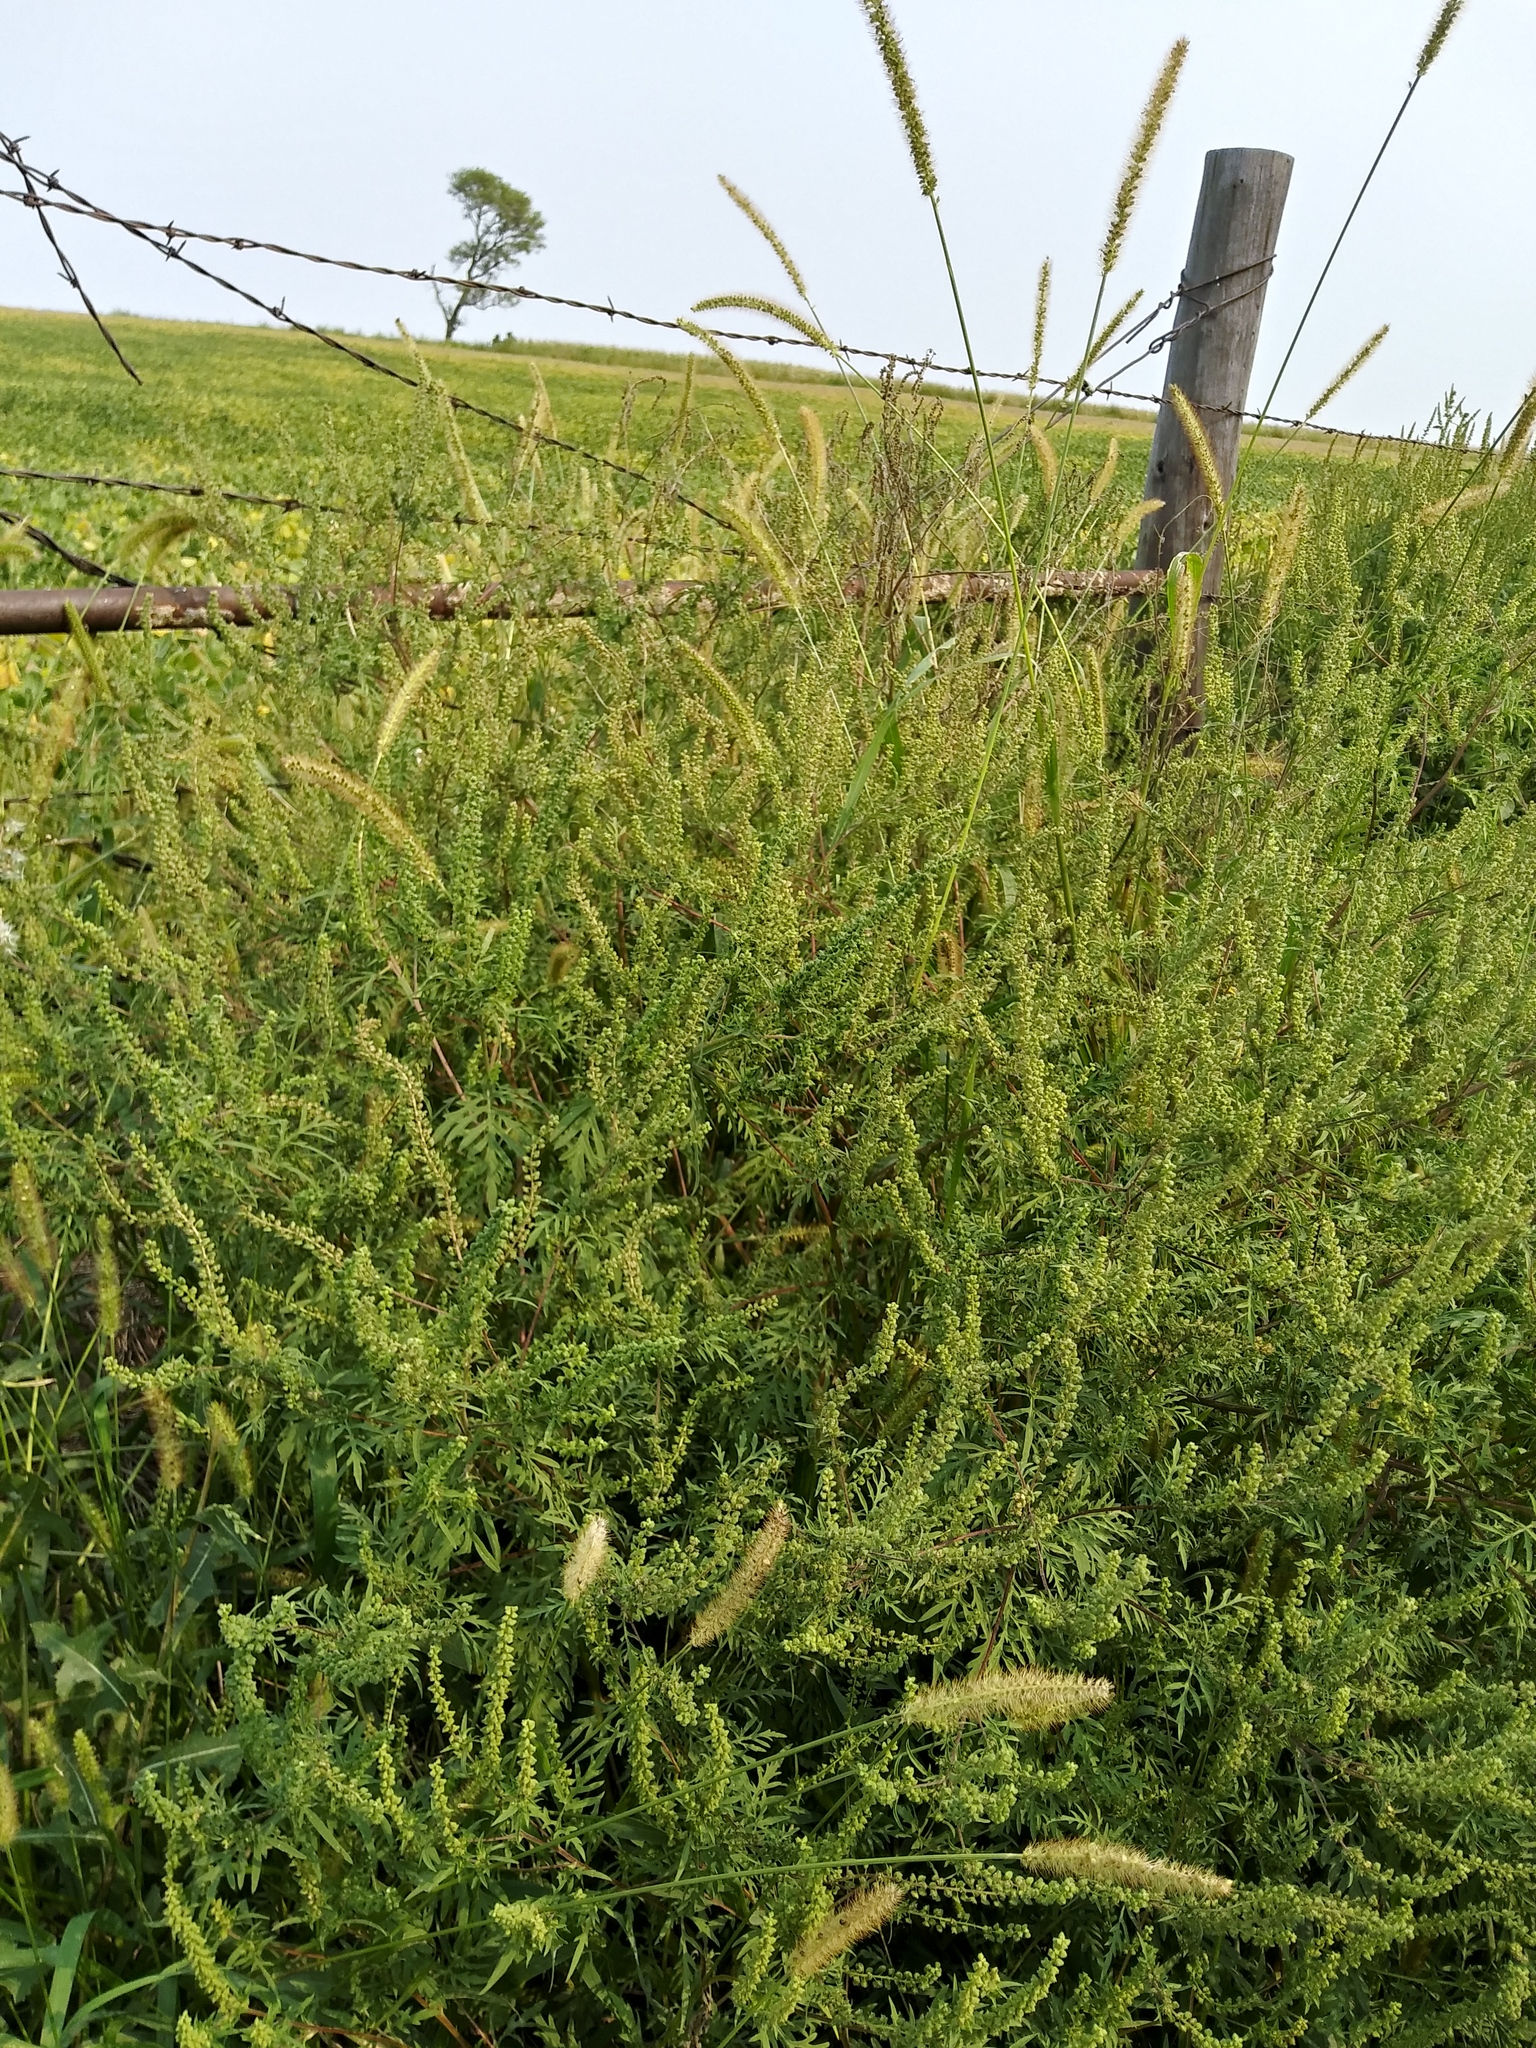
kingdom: Plantae
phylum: Tracheophyta
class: Magnoliopsida
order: Asterales
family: Asteraceae
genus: Ambrosia
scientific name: Ambrosia artemisiifolia
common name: Annual ragweed
